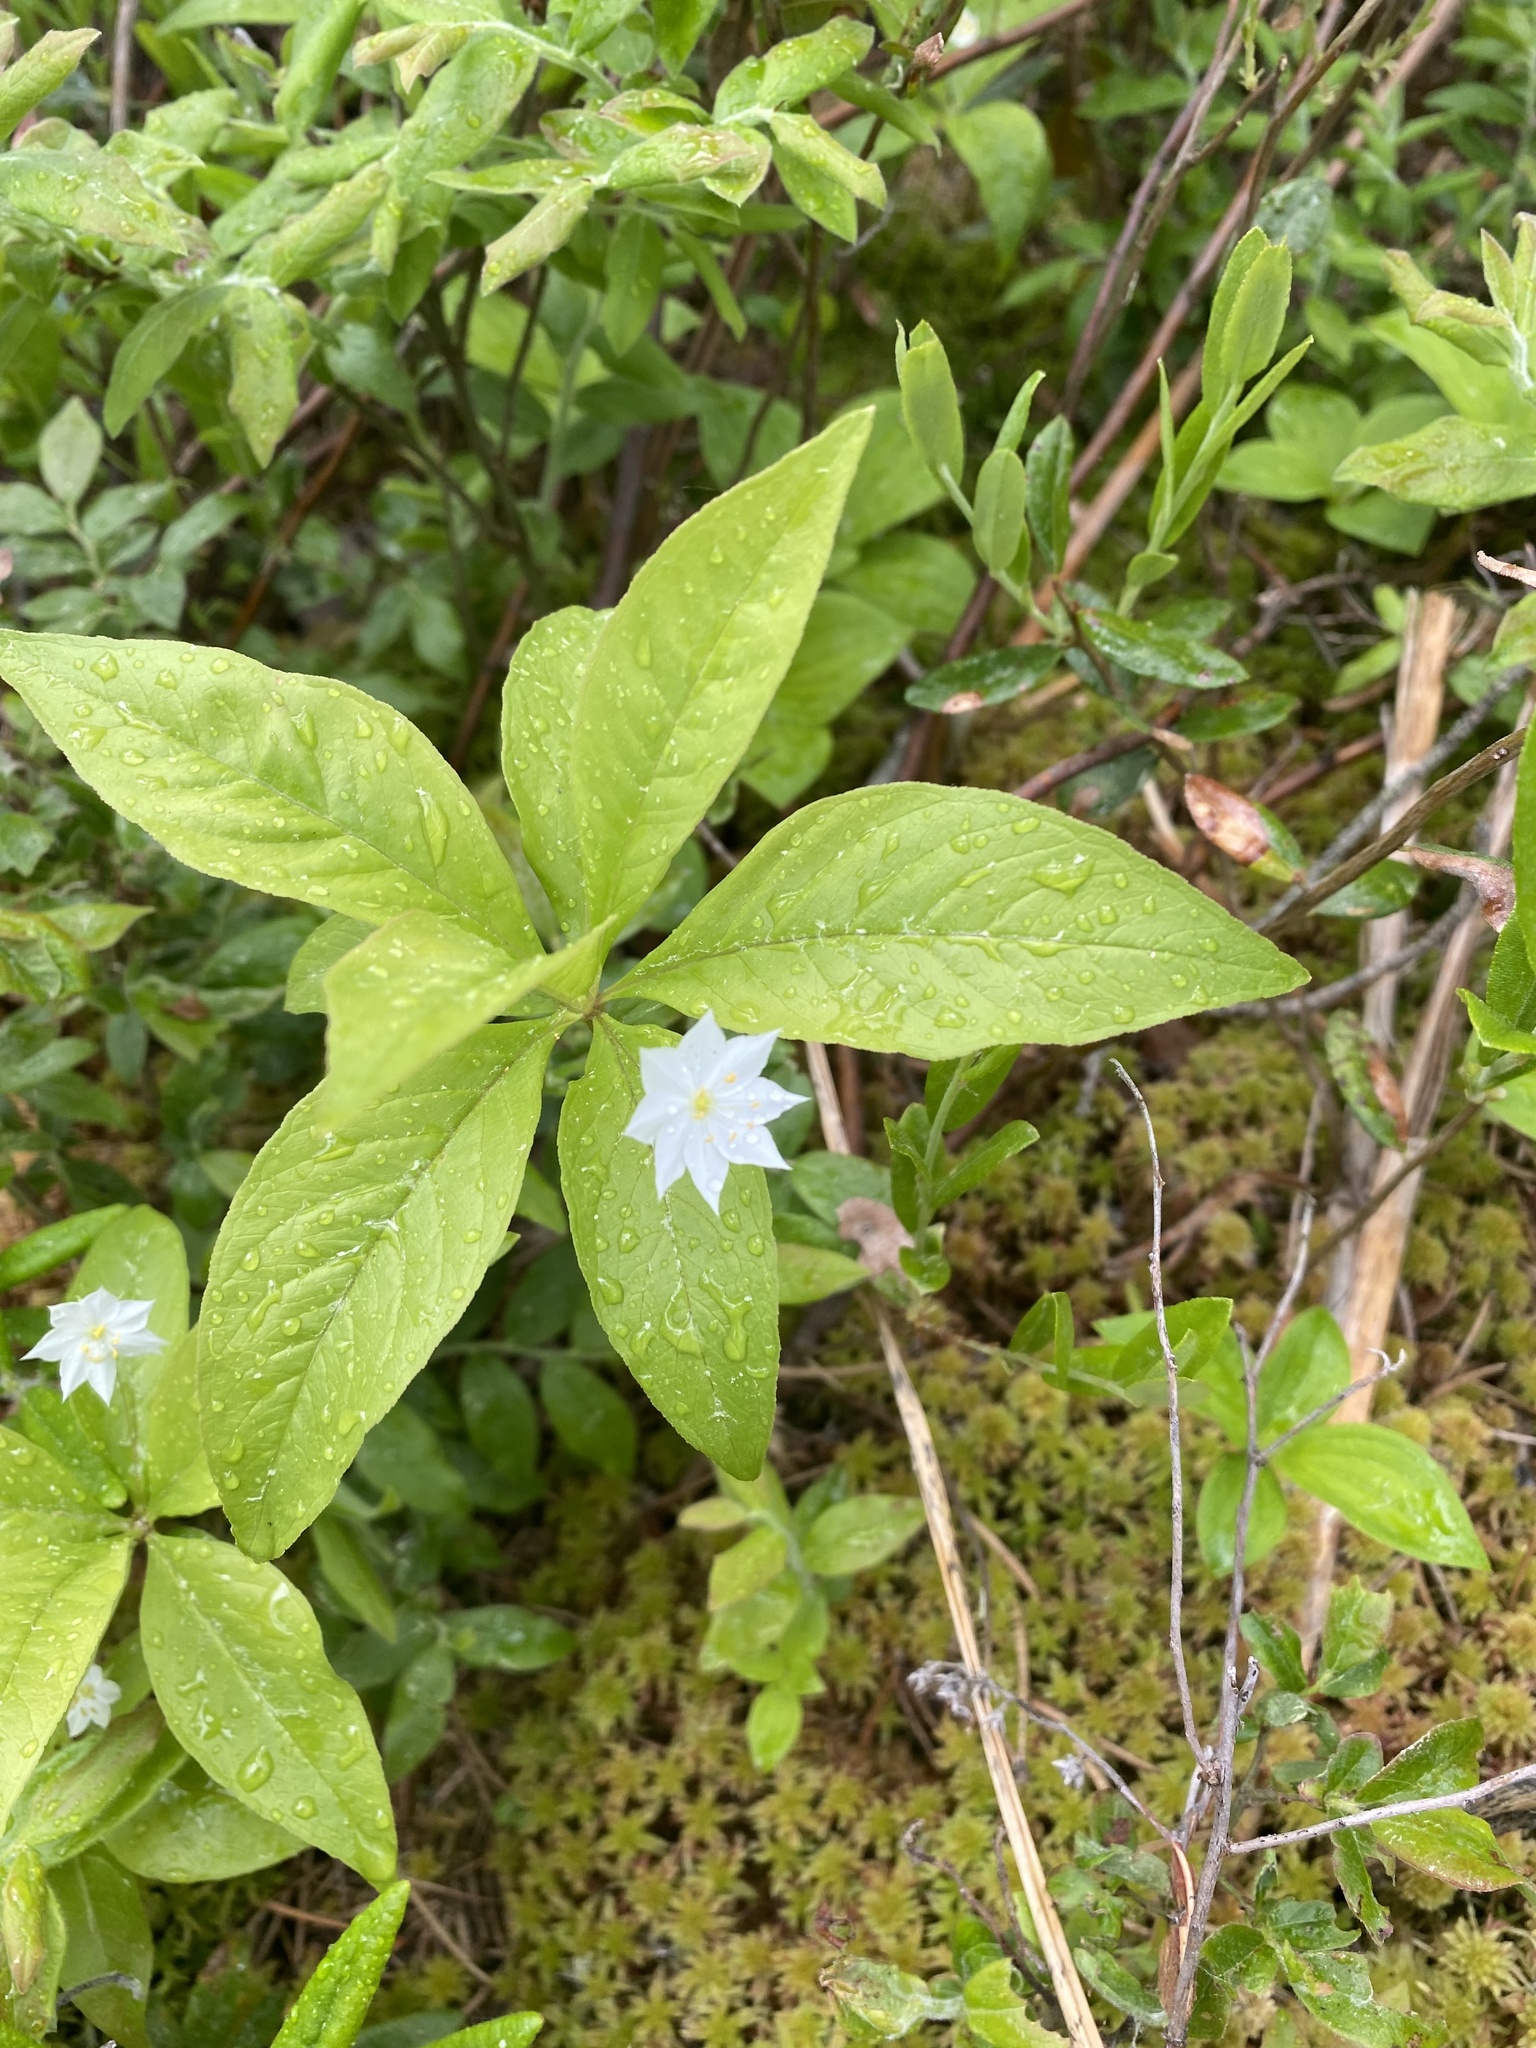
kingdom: Plantae
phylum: Tracheophyta
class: Magnoliopsida
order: Ericales
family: Primulaceae
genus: Lysimachia
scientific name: Lysimachia borealis
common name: American starflower
